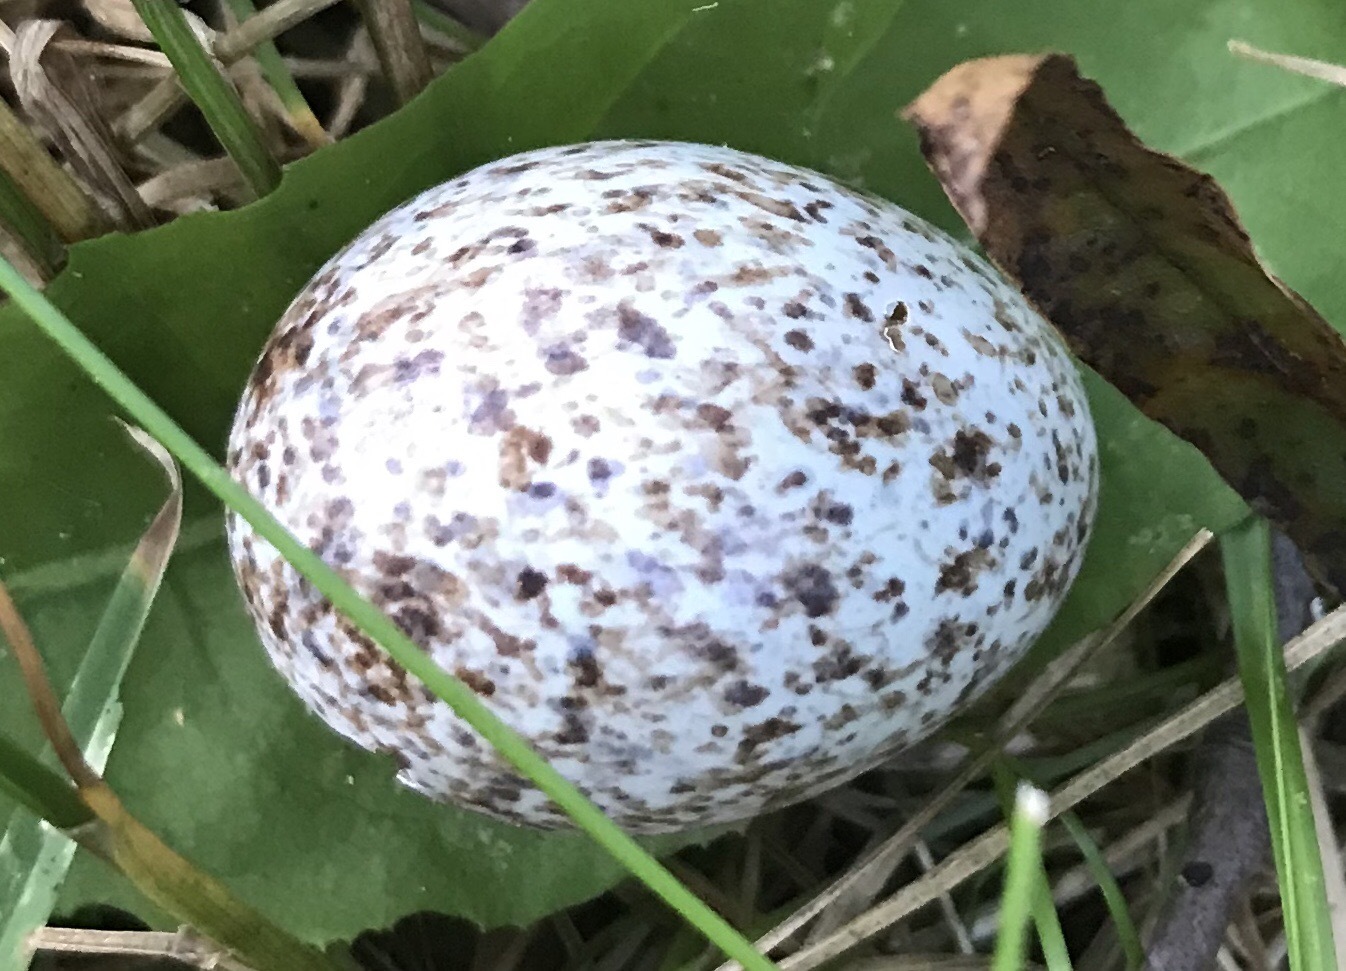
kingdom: Animalia
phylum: Chordata
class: Aves
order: Passeriformes
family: Passeridae
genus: Passer
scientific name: Passer domesticus
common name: House sparrow
